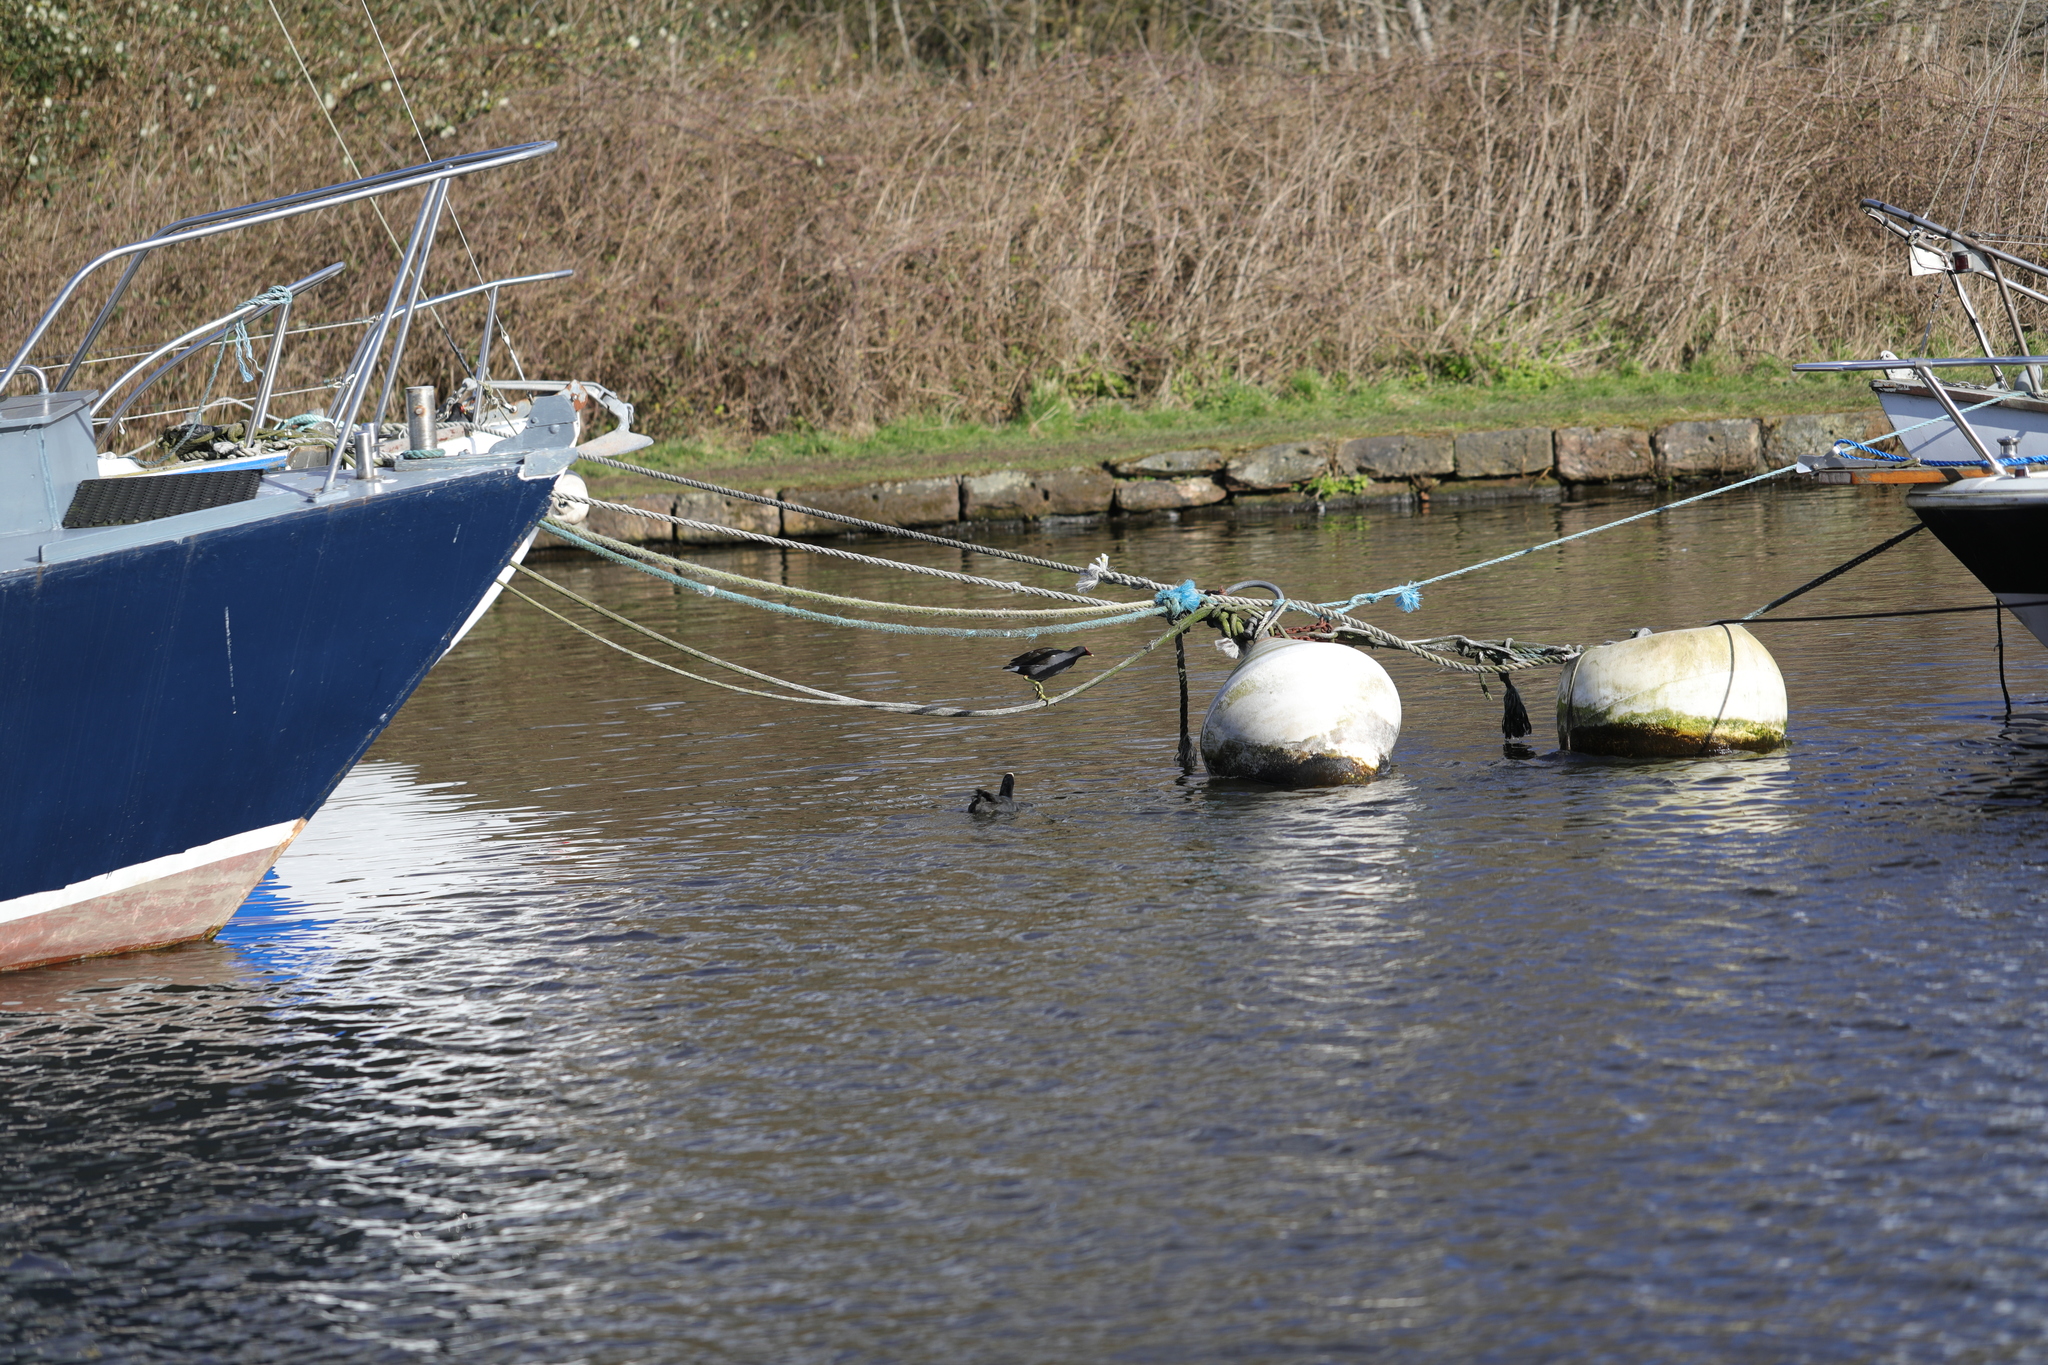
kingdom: Animalia
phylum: Chordata
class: Aves
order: Gruiformes
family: Rallidae
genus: Gallinula
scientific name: Gallinula chloropus
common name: Common moorhen
